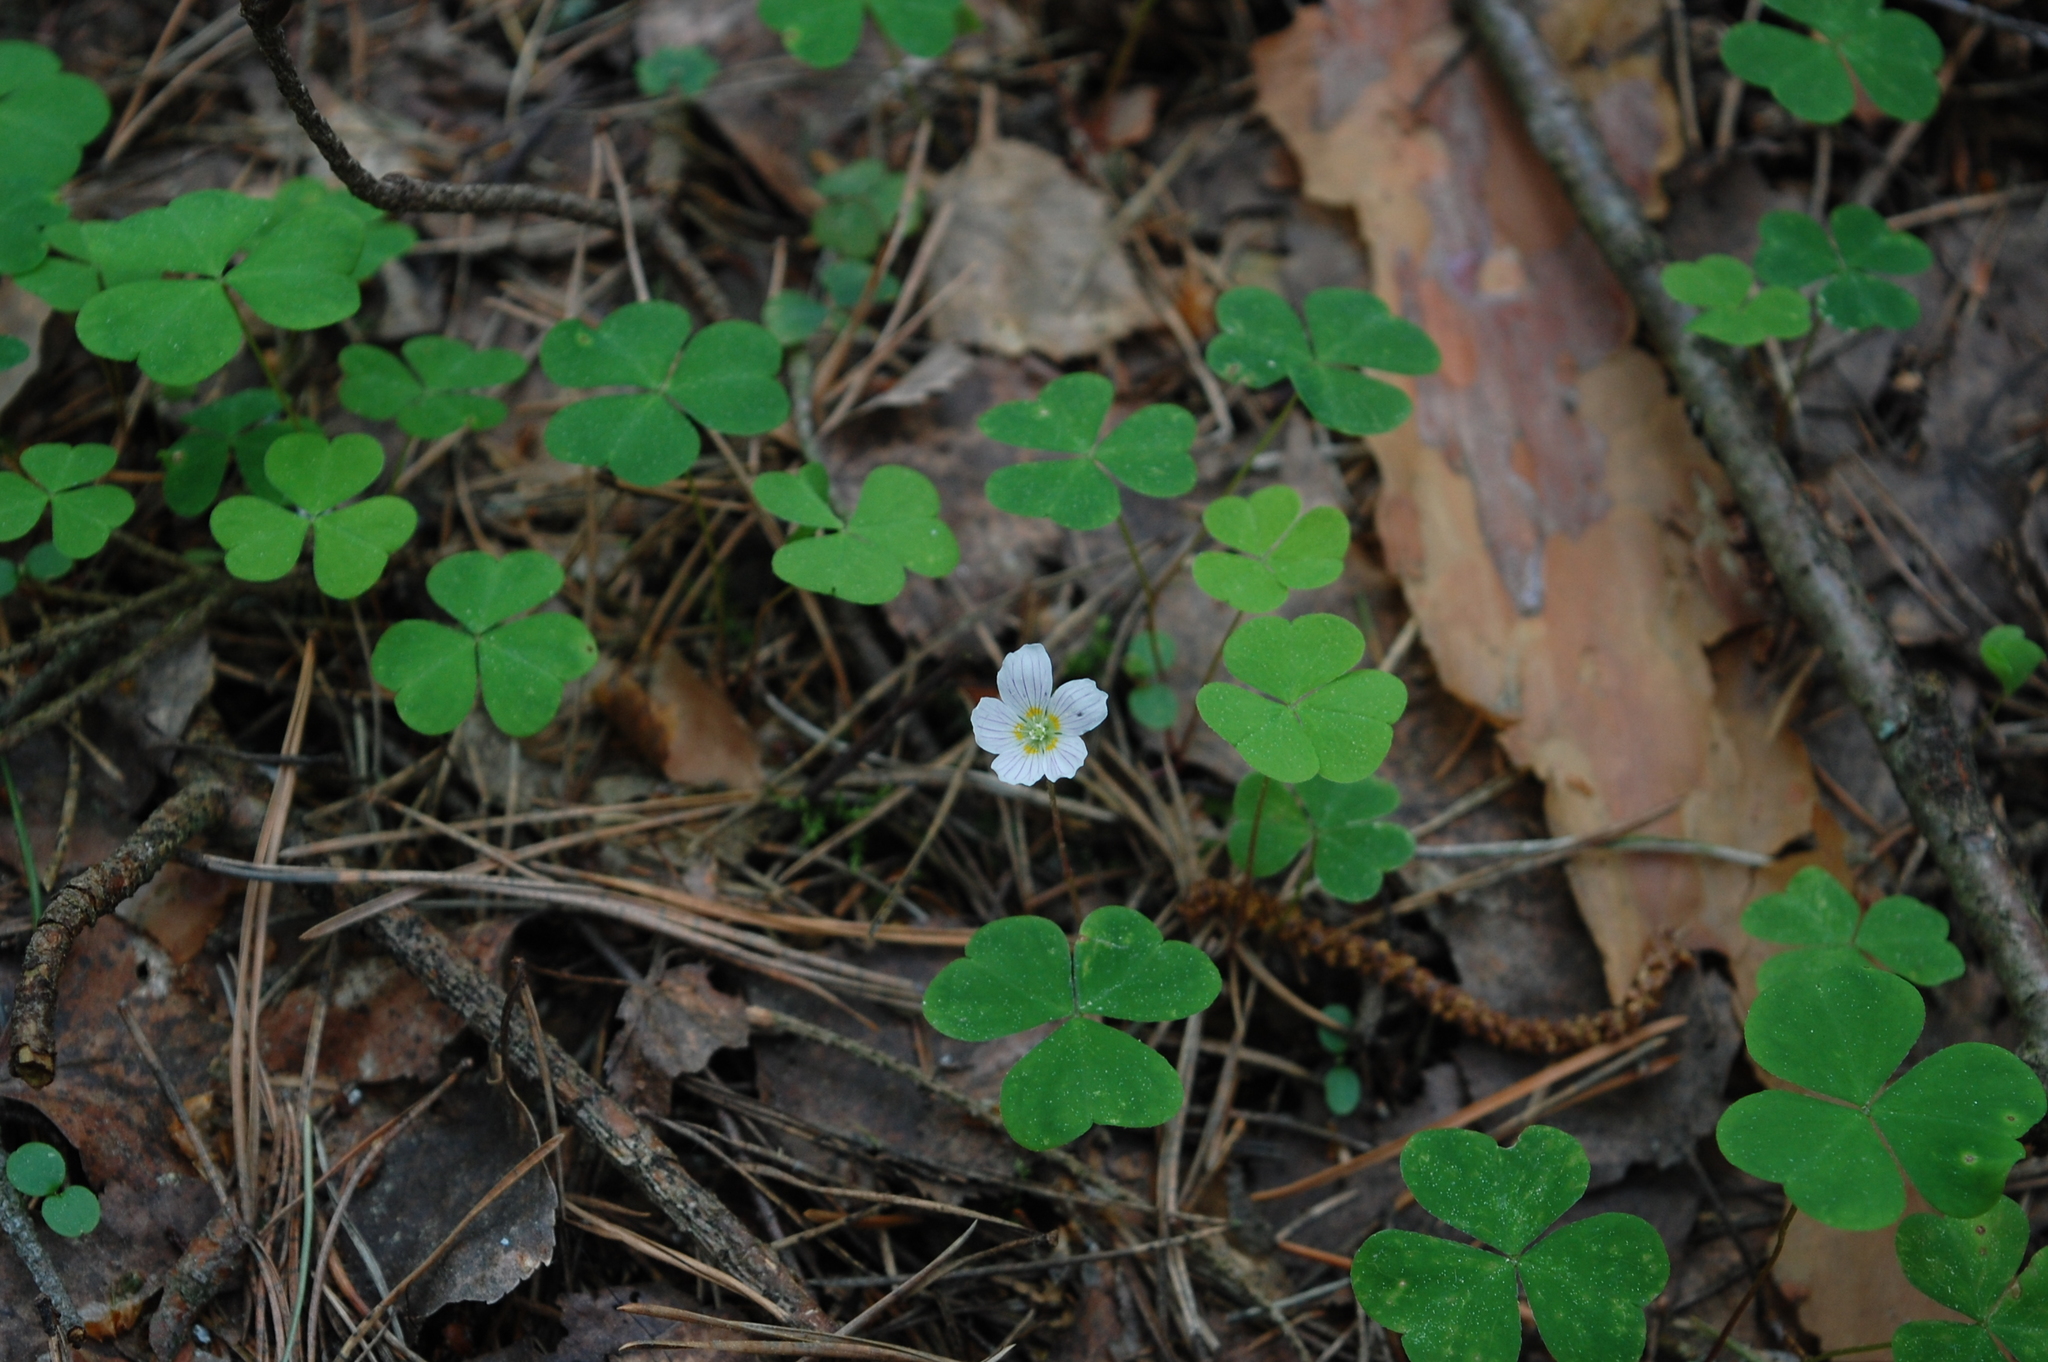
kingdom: Plantae
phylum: Tracheophyta
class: Magnoliopsida
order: Oxalidales
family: Oxalidaceae
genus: Oxalis
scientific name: Oxalis acetosella
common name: Wood-sorrel
